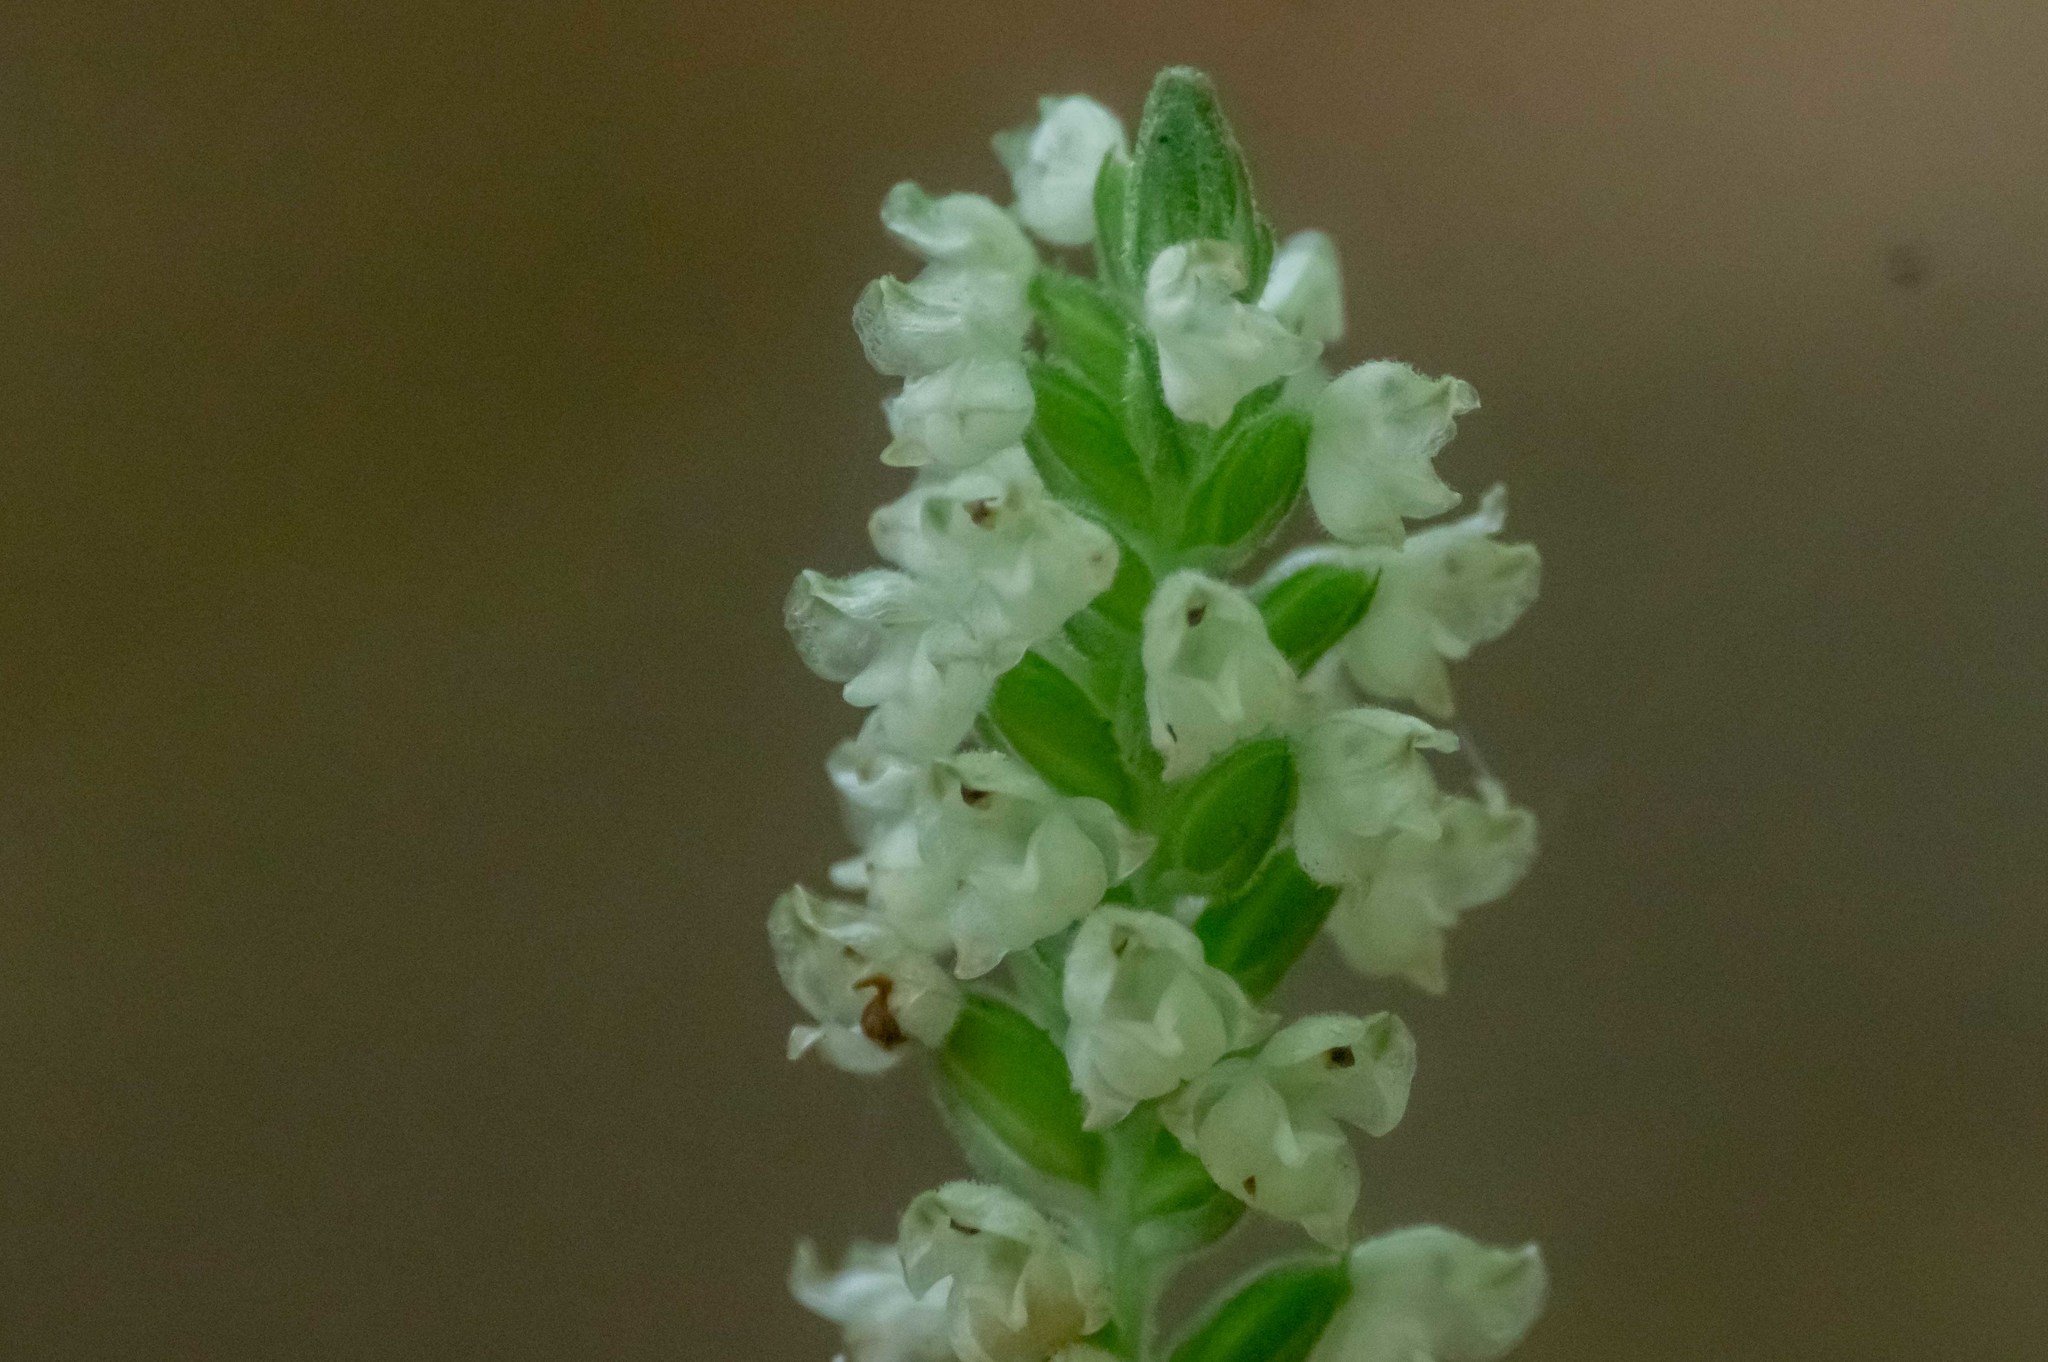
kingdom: Plantae
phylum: Tracheophyta
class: Liliopsida
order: Asparagales
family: Orchidaceae
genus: Goodyera
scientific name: Goodyera pubescens
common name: Downy rattlesnake-plantain
